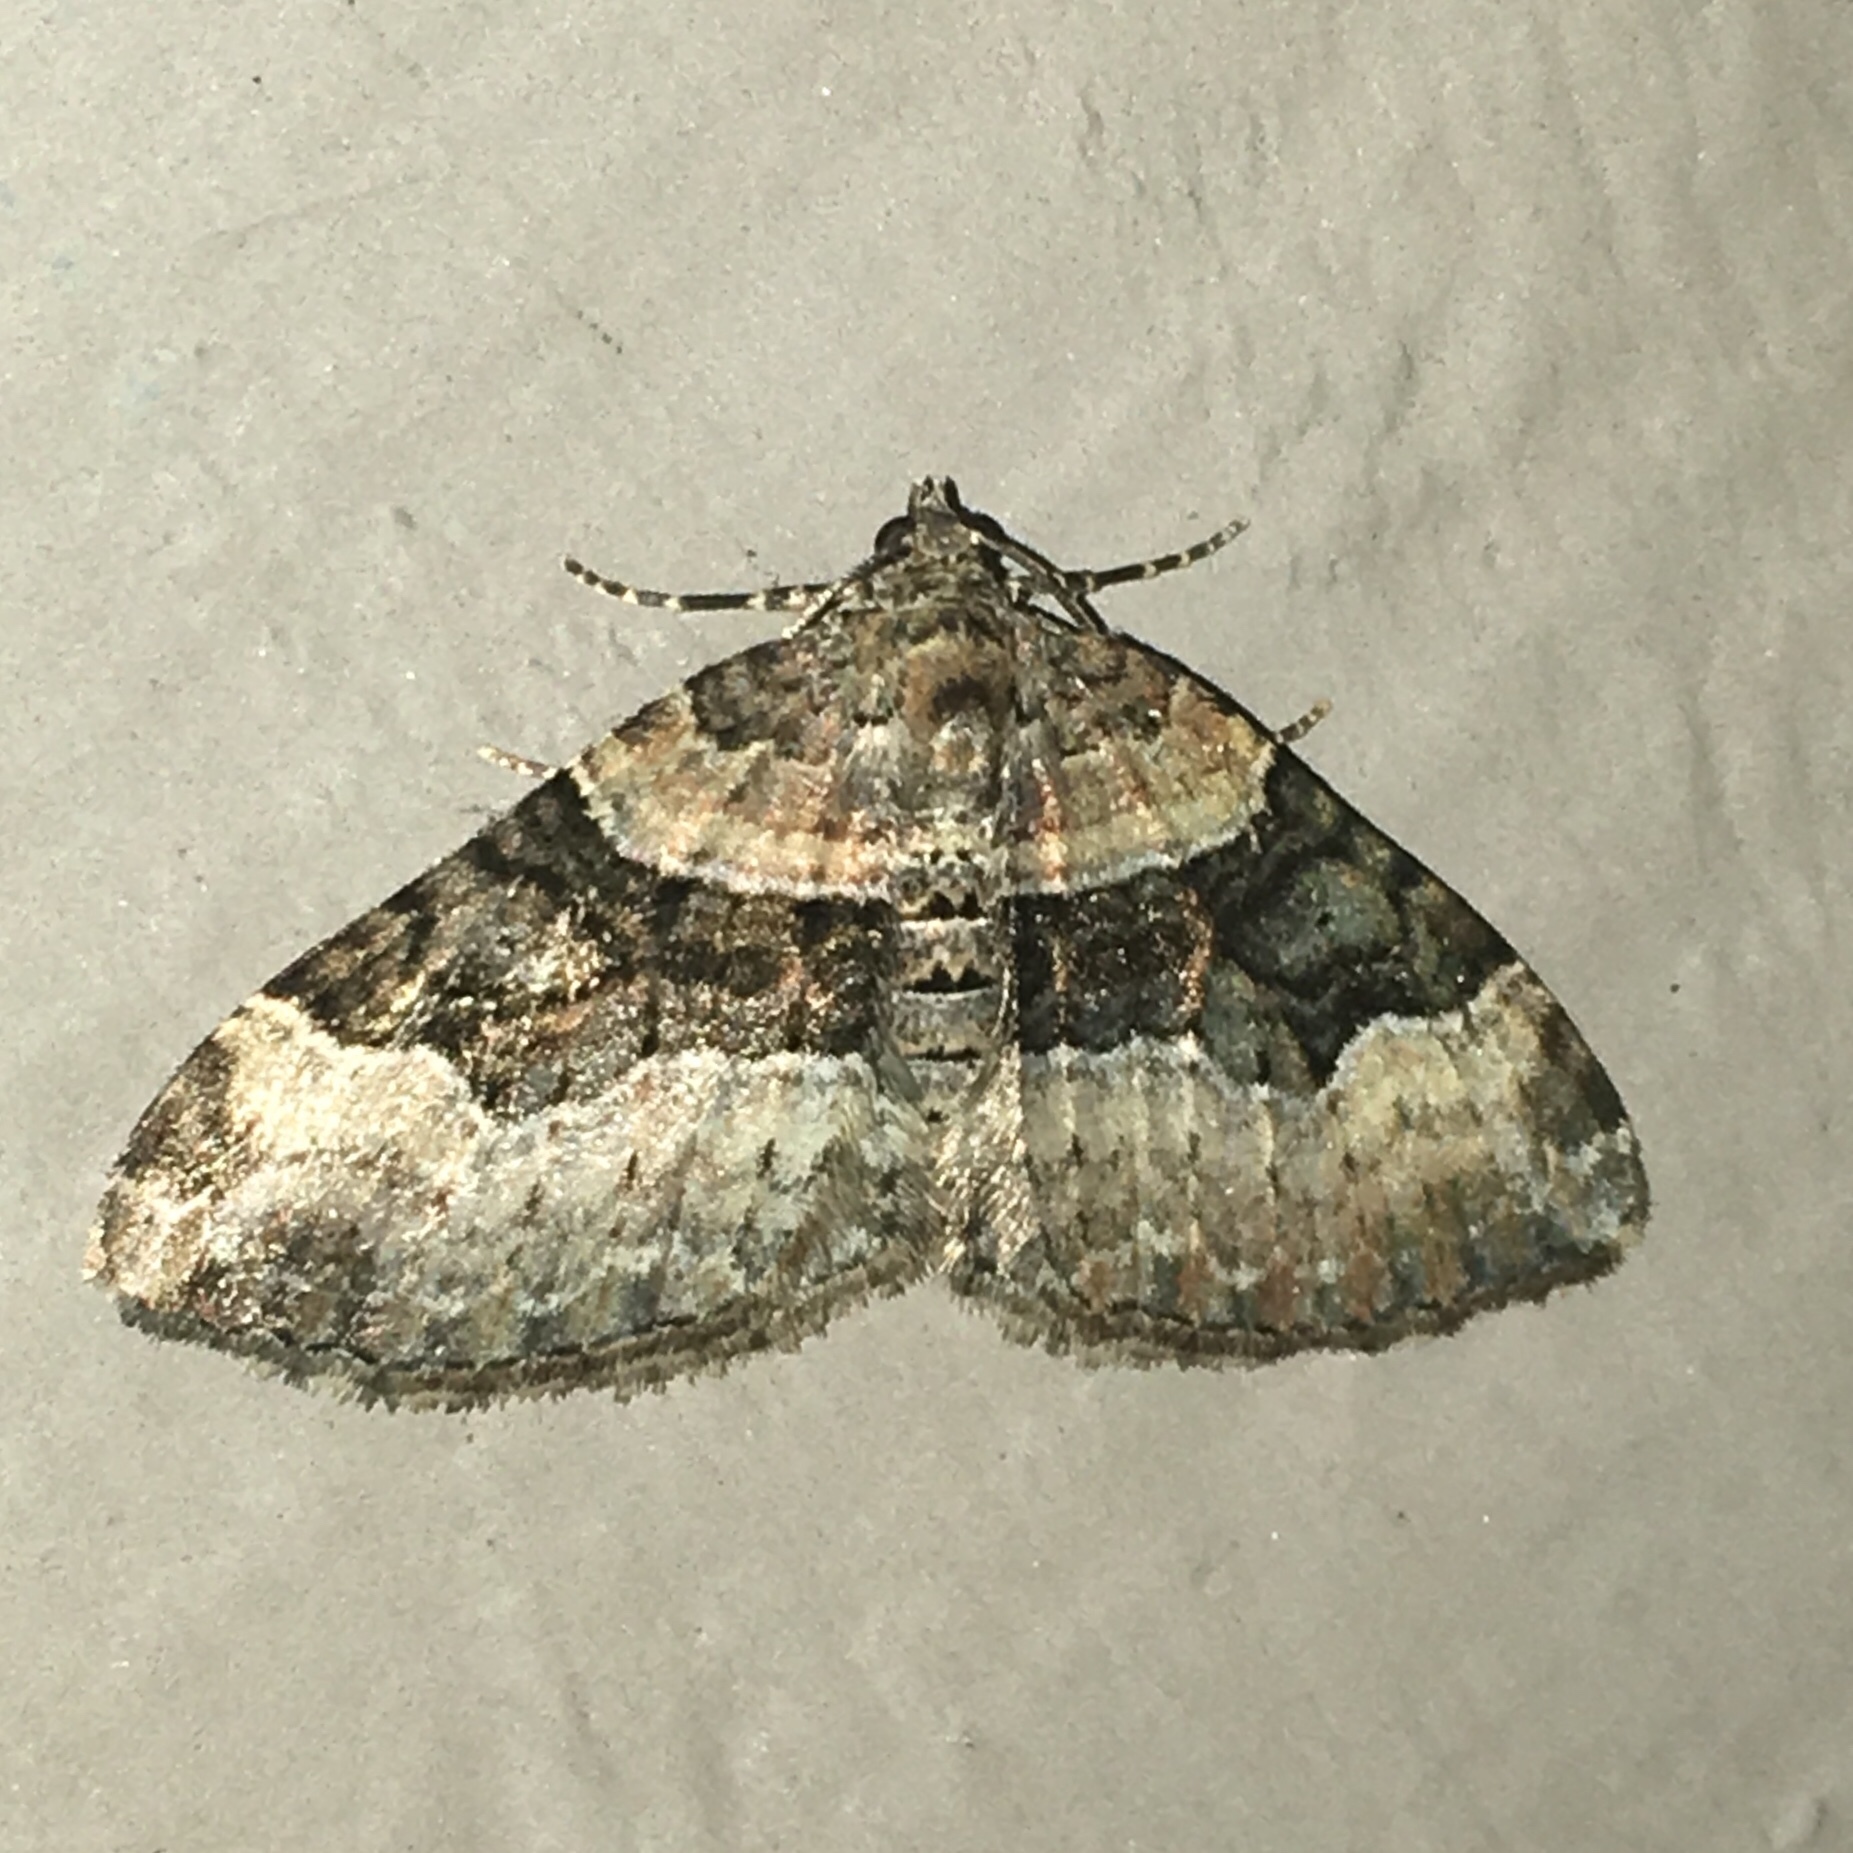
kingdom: Animalia
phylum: Arthropoda
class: Insecta
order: Lepidoptera
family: Geometridae
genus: Xanthorhoe
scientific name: Xanthorhoe lacustrata
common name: Toothed brown carpet
